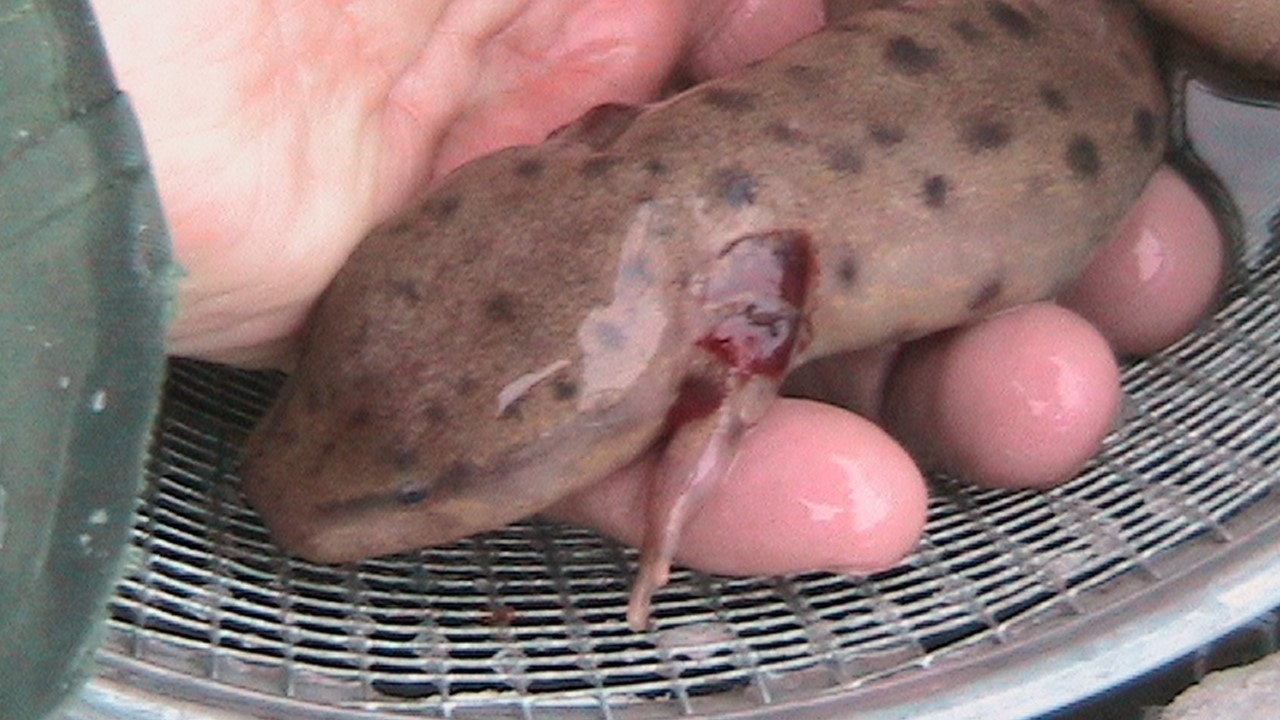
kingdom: Animalia
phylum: Chordata
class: Amphibia
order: Caudata
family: Proteidae
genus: Necturus
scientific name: Necturus maculosus
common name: Mudpuppy
